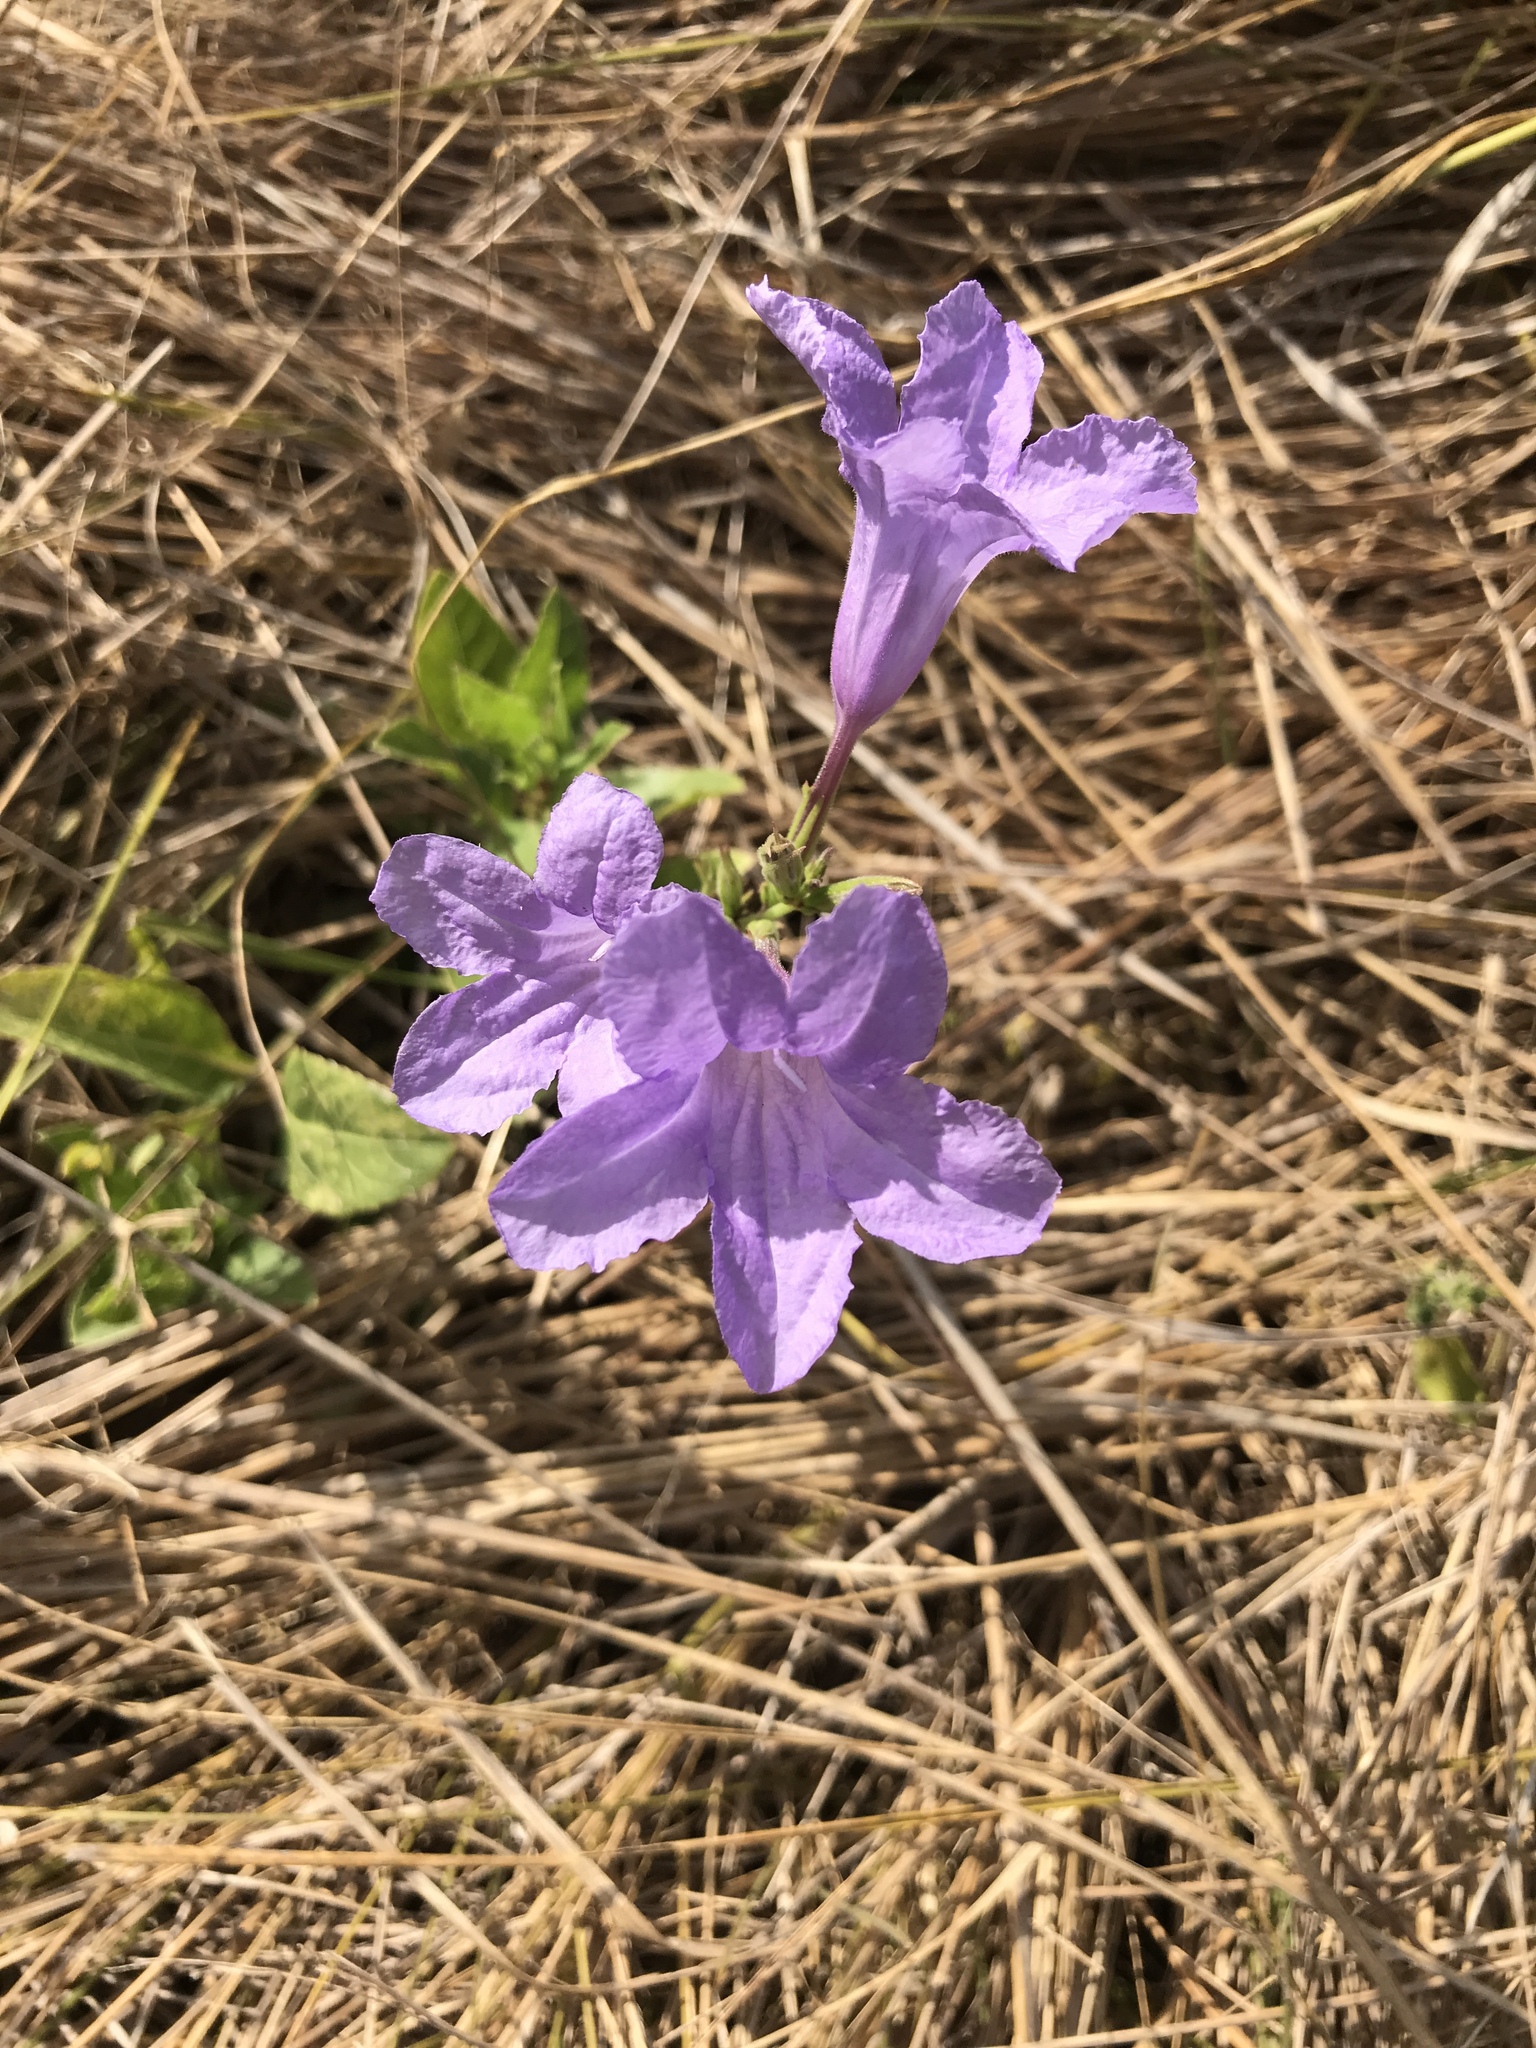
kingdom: Plantae
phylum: Tracheophyta
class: Magnoliopsida
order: Lamiales
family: Acanthaceae
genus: Ruellia
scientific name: Ruellia ciliatiflora
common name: Hairyflower wild petunia
